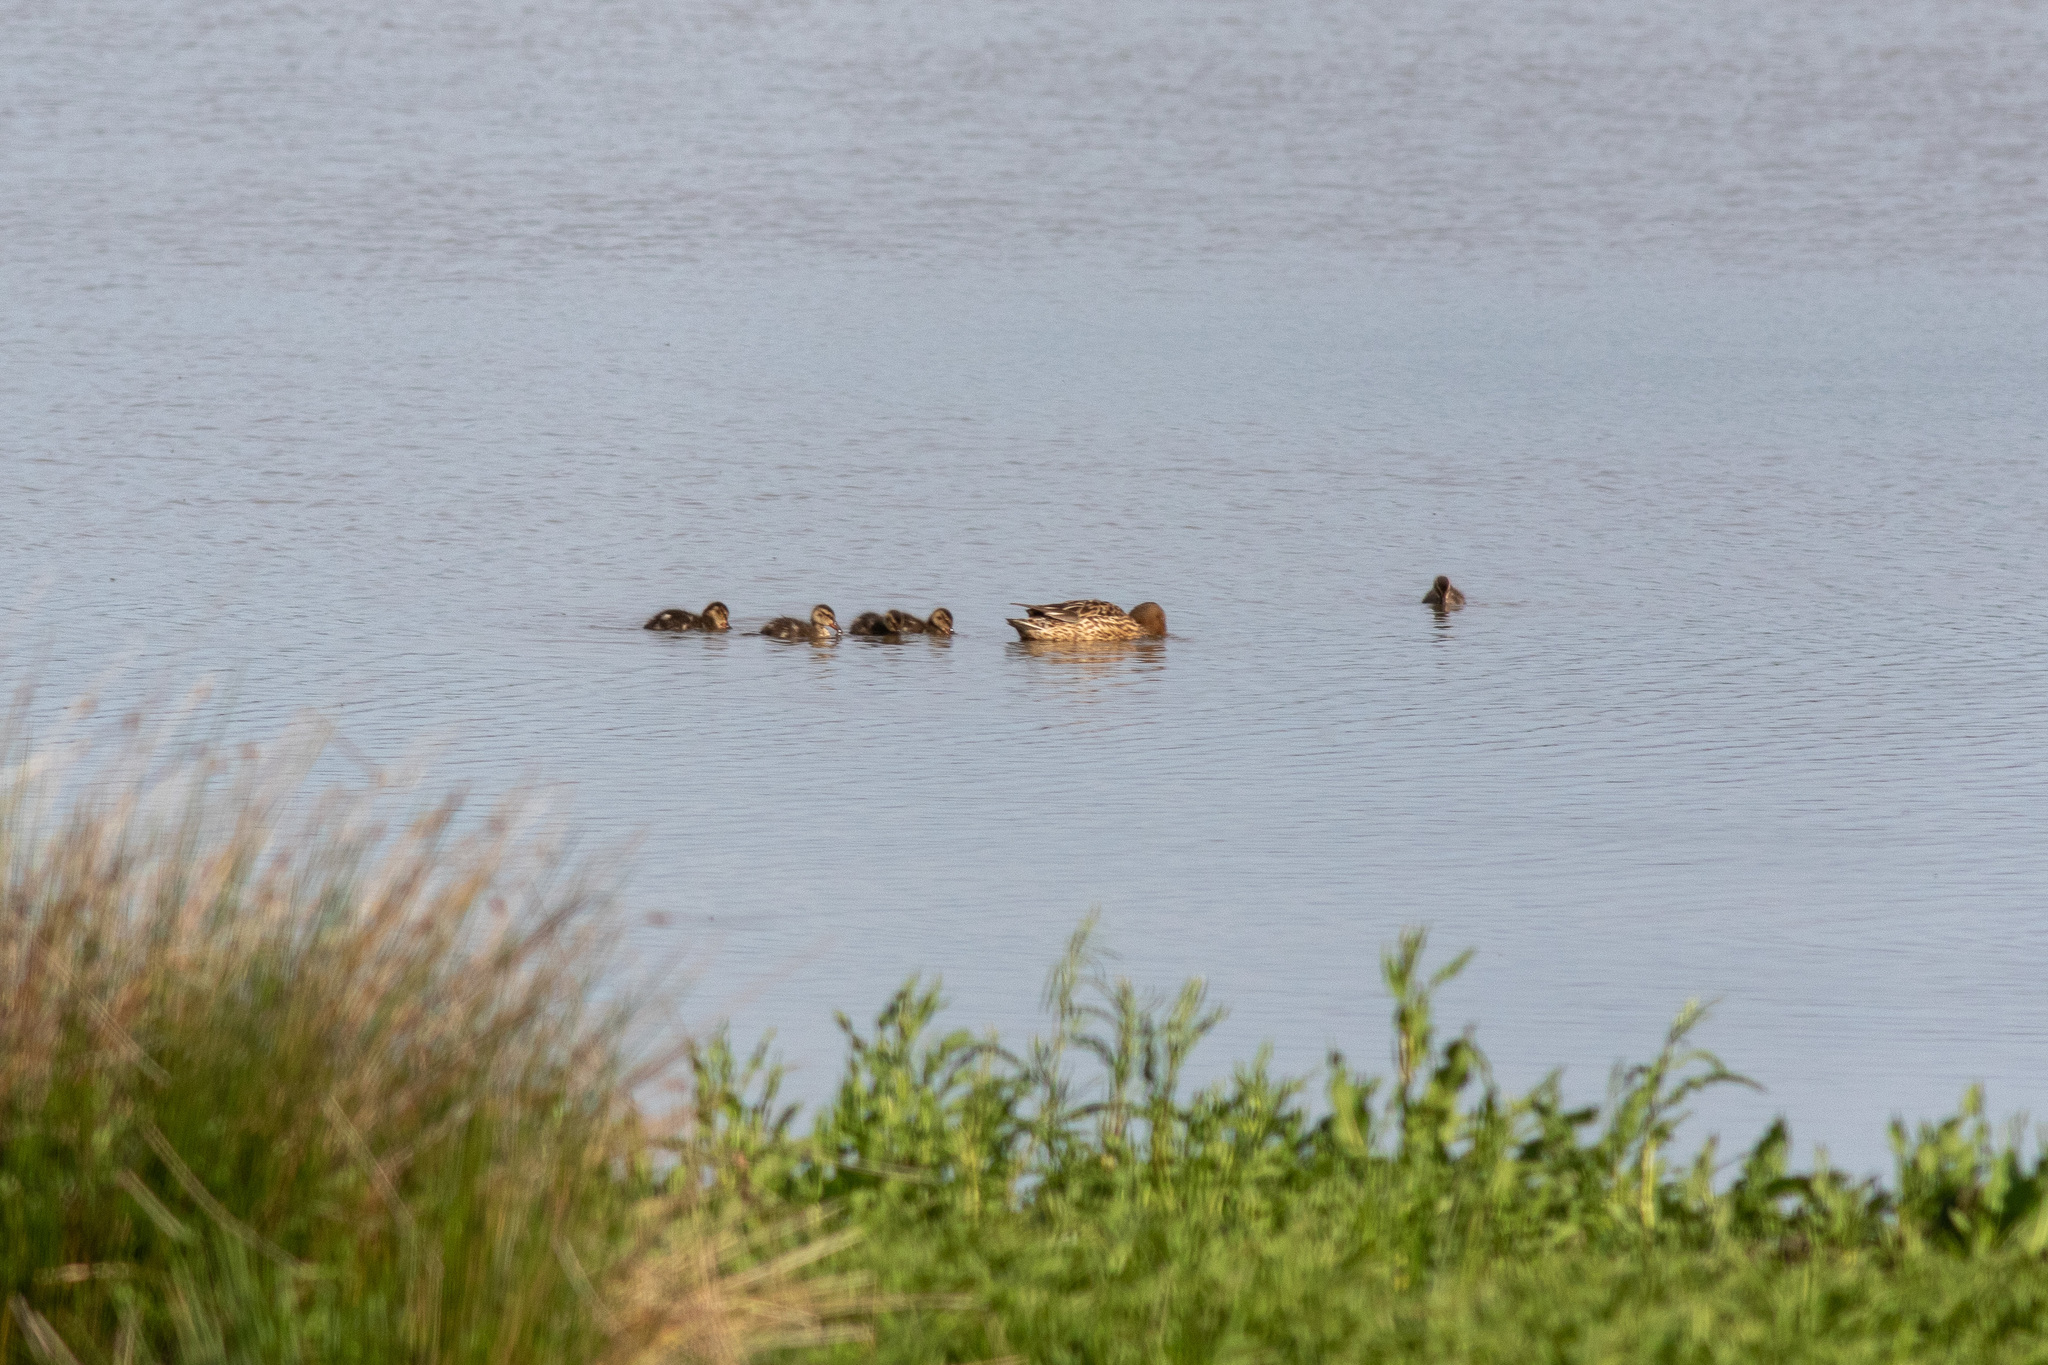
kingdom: Animalia
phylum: Chordata
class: Aves
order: Anseriformes
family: Anatidae
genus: Spatula
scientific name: Spatula clypeata
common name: Northern shoveler
